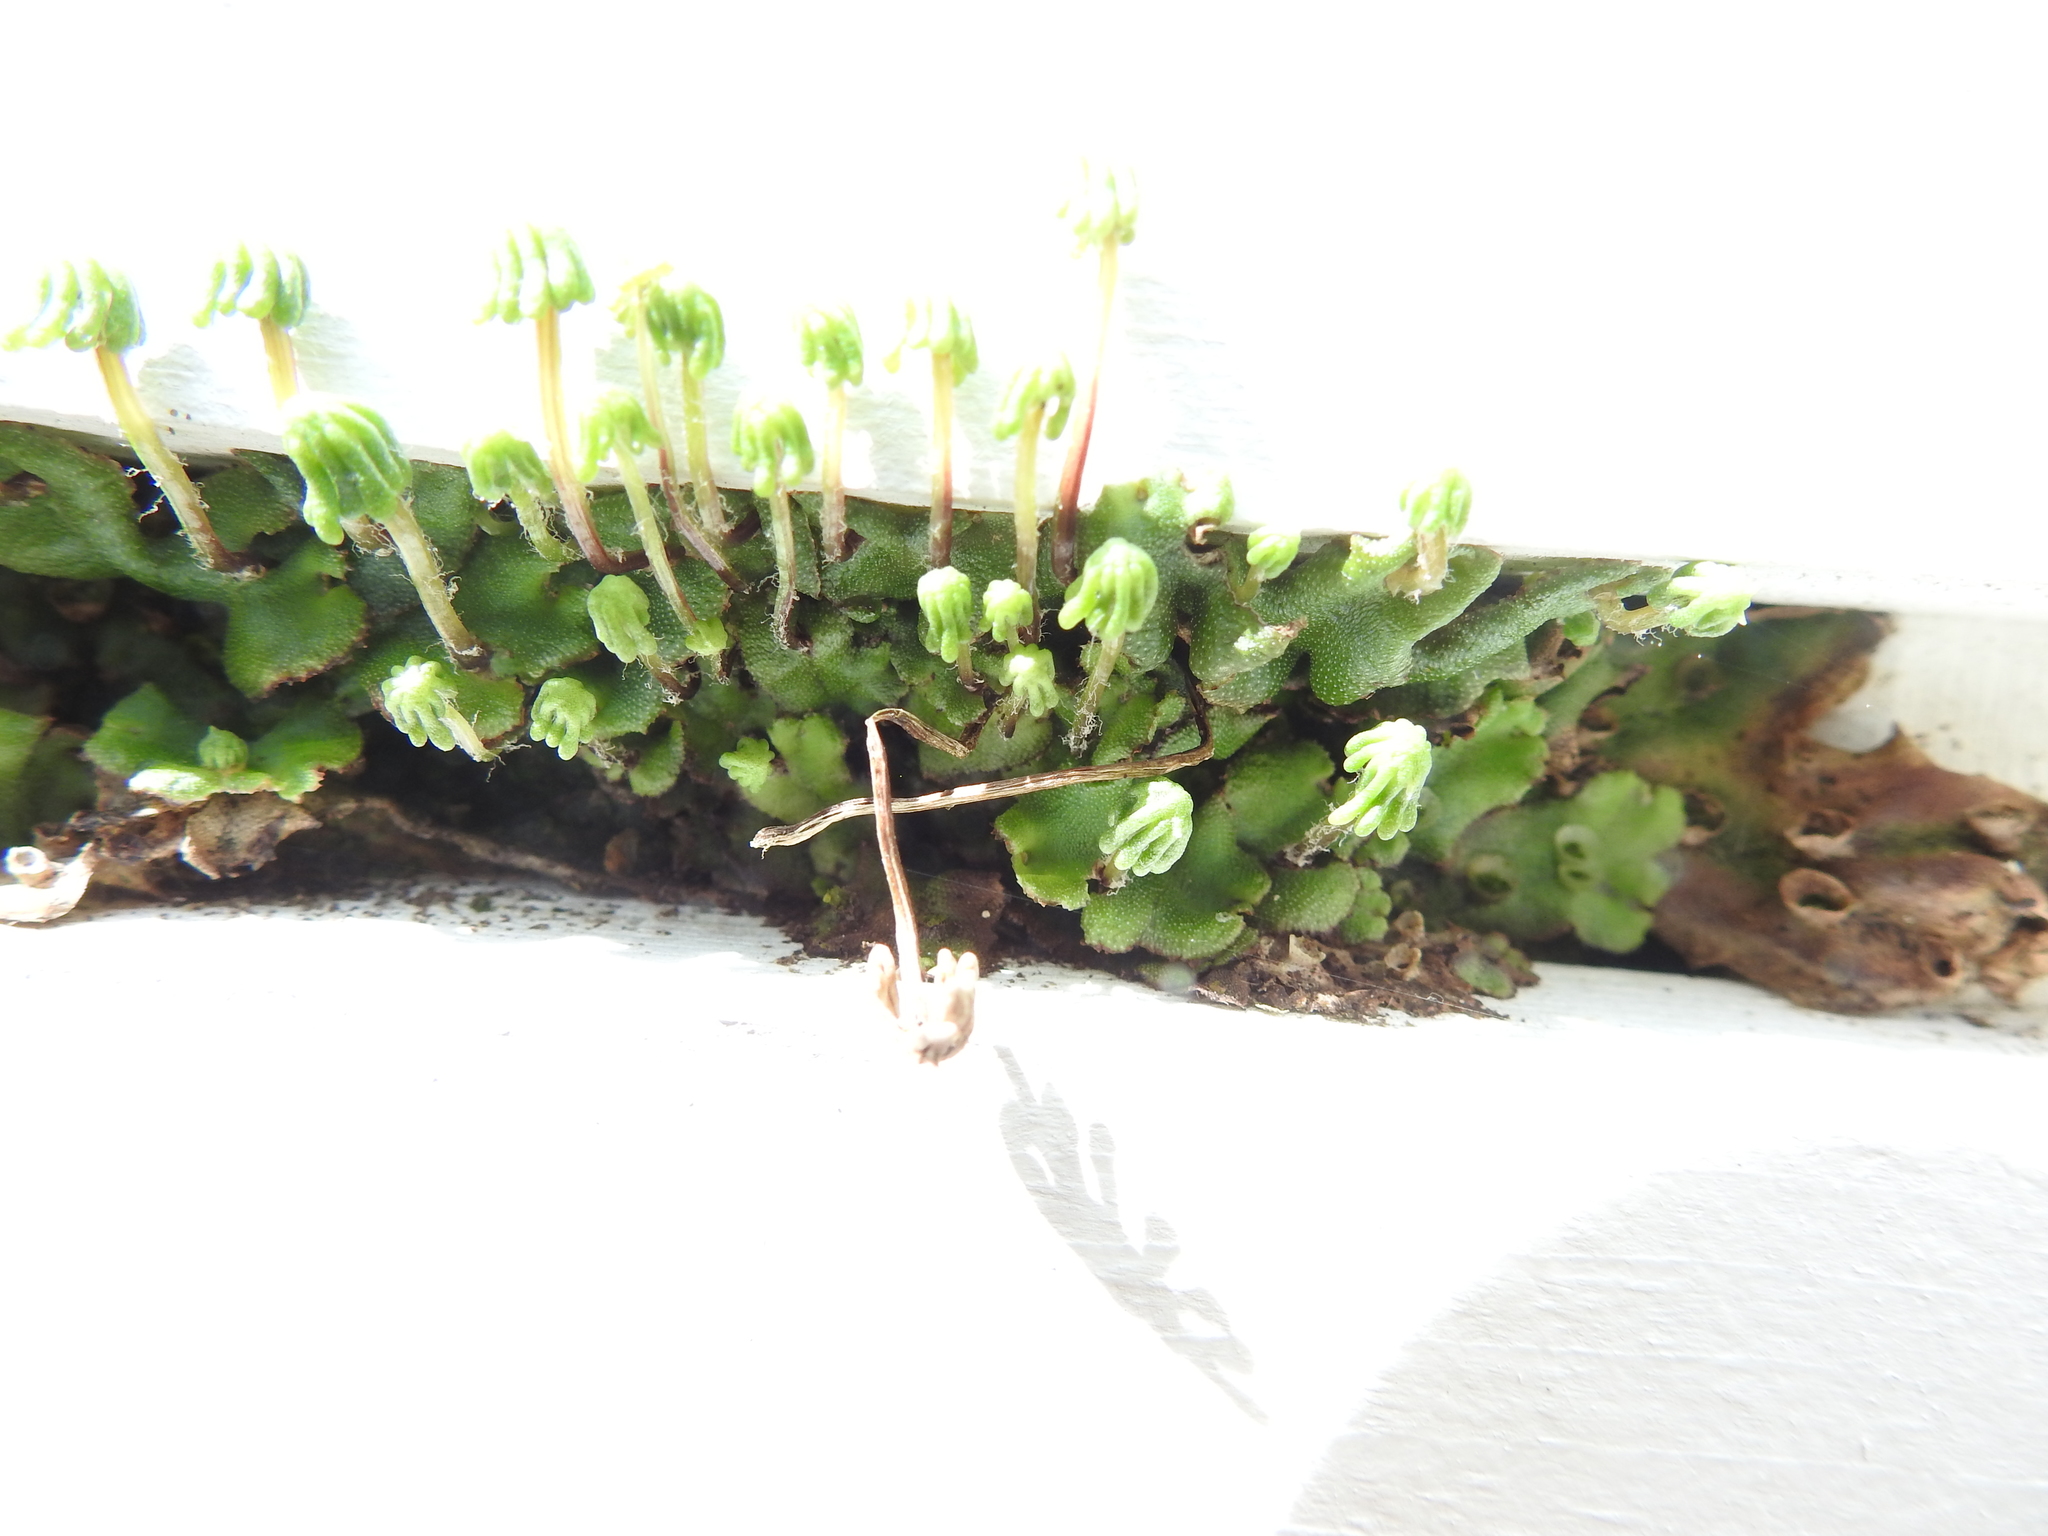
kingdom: Plantae
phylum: Marchantiophyta
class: Marchantiopsida
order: Marchantiales
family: Marchantiaceae
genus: Marchantia
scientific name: Marchantia polymorpha
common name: Common liverwort
